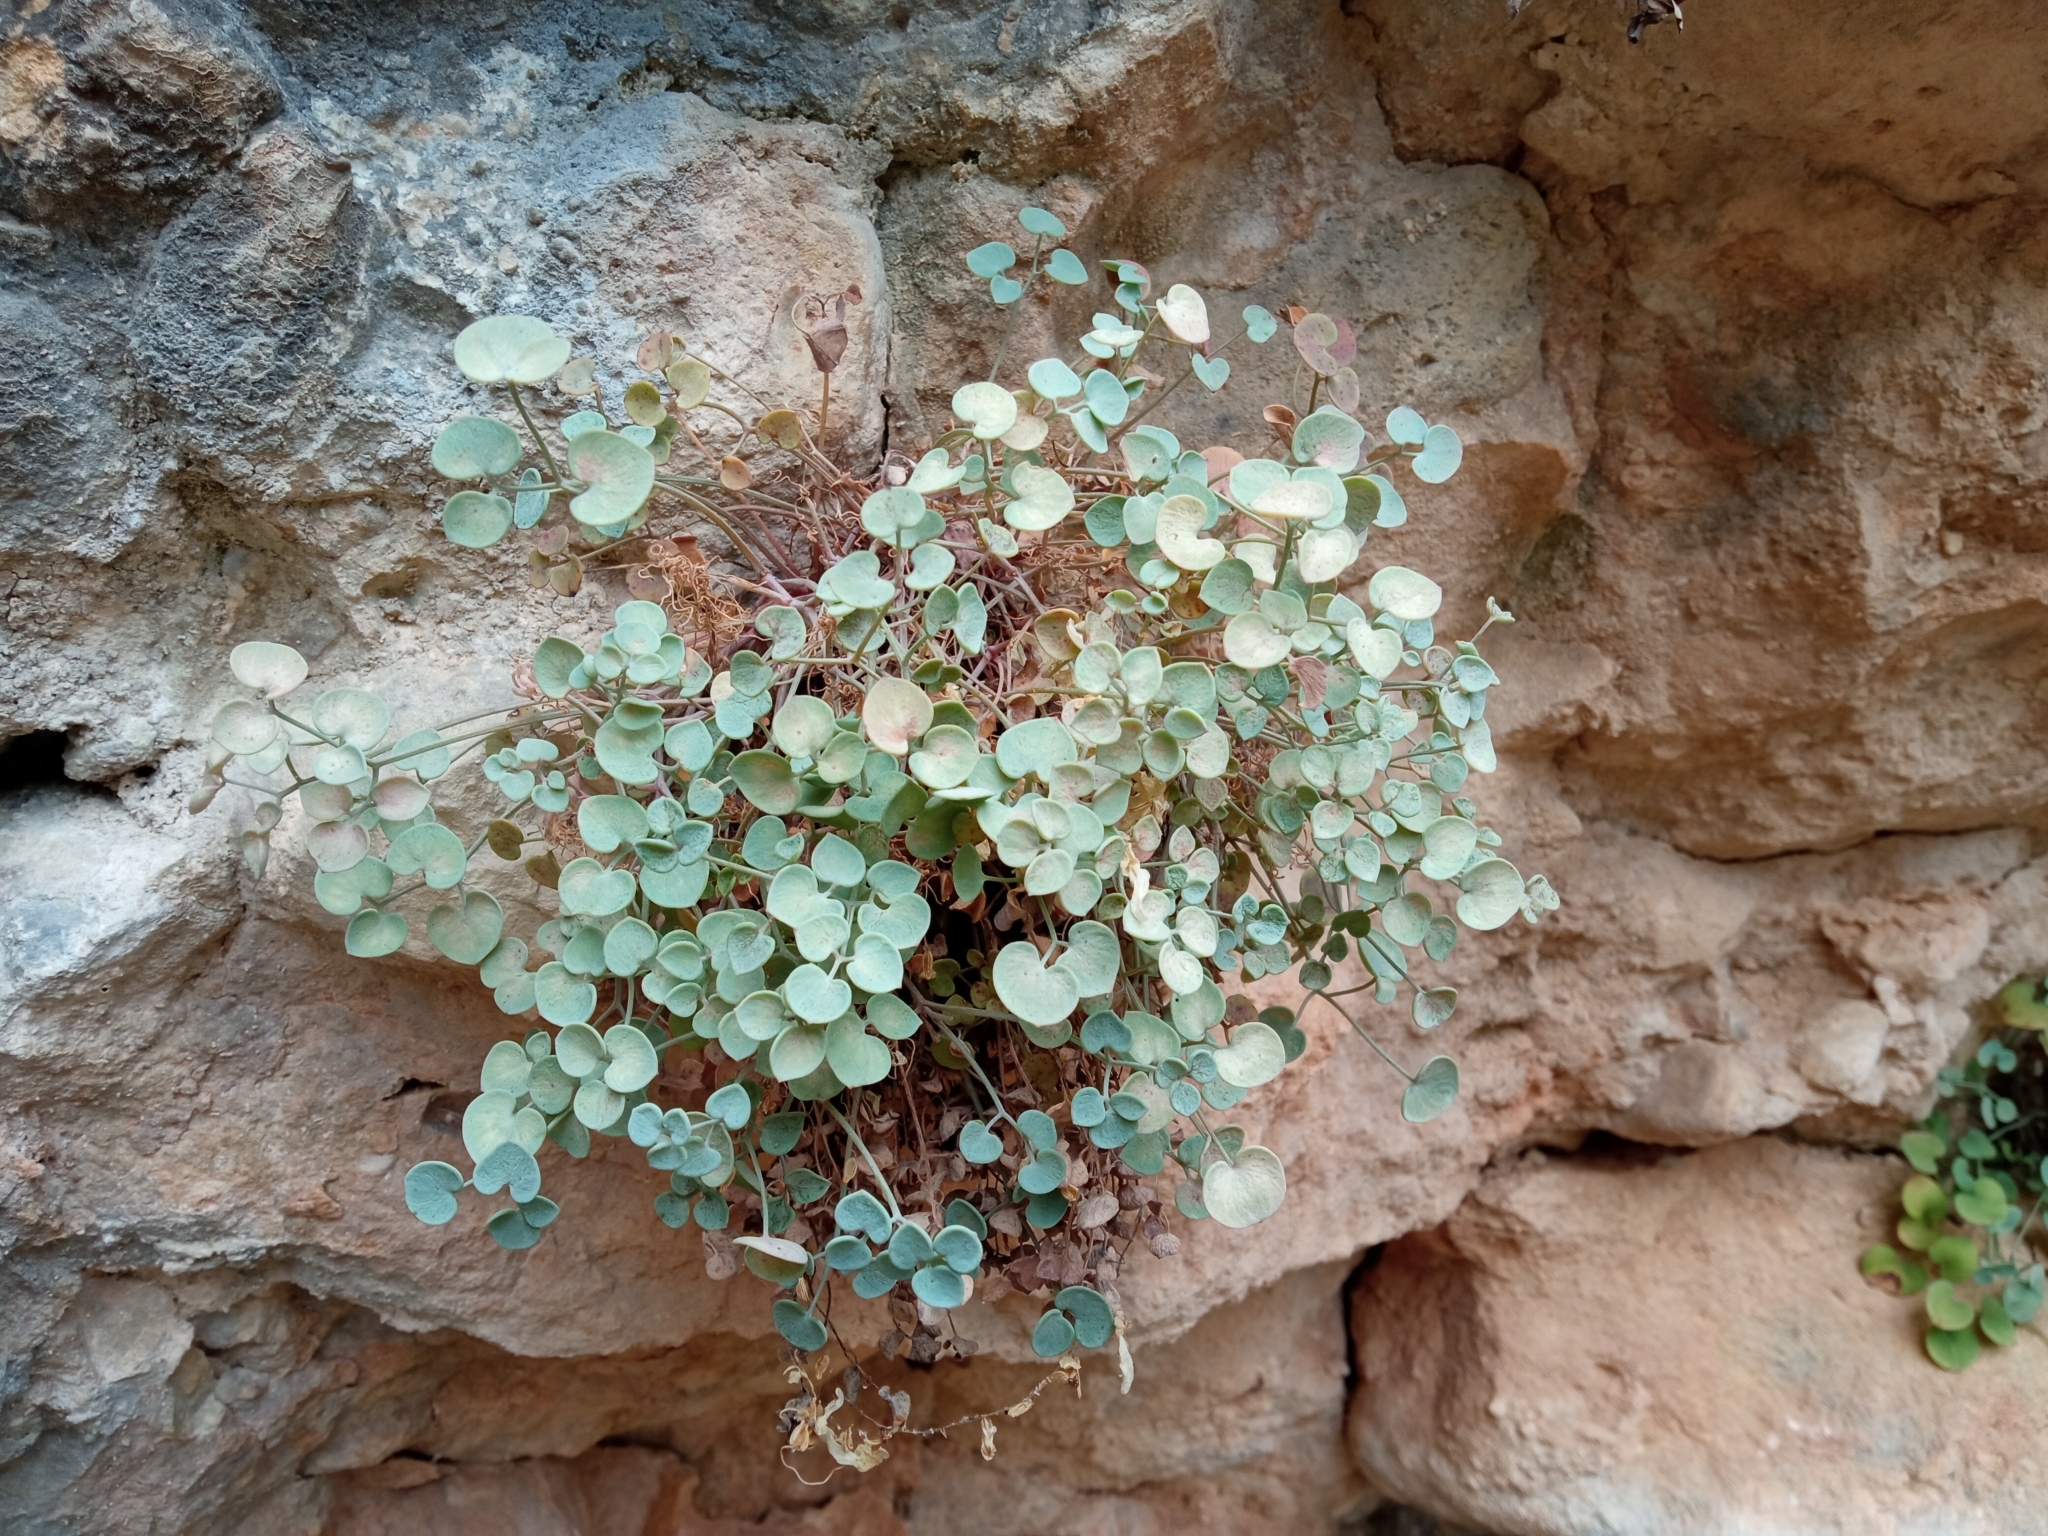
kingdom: Plantae
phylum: Tracheophyta
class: Magnoliopsida
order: Ranunculales
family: Papaveraceae
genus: Sarcocapnos
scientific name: Sarcocapnos enneaphylla
